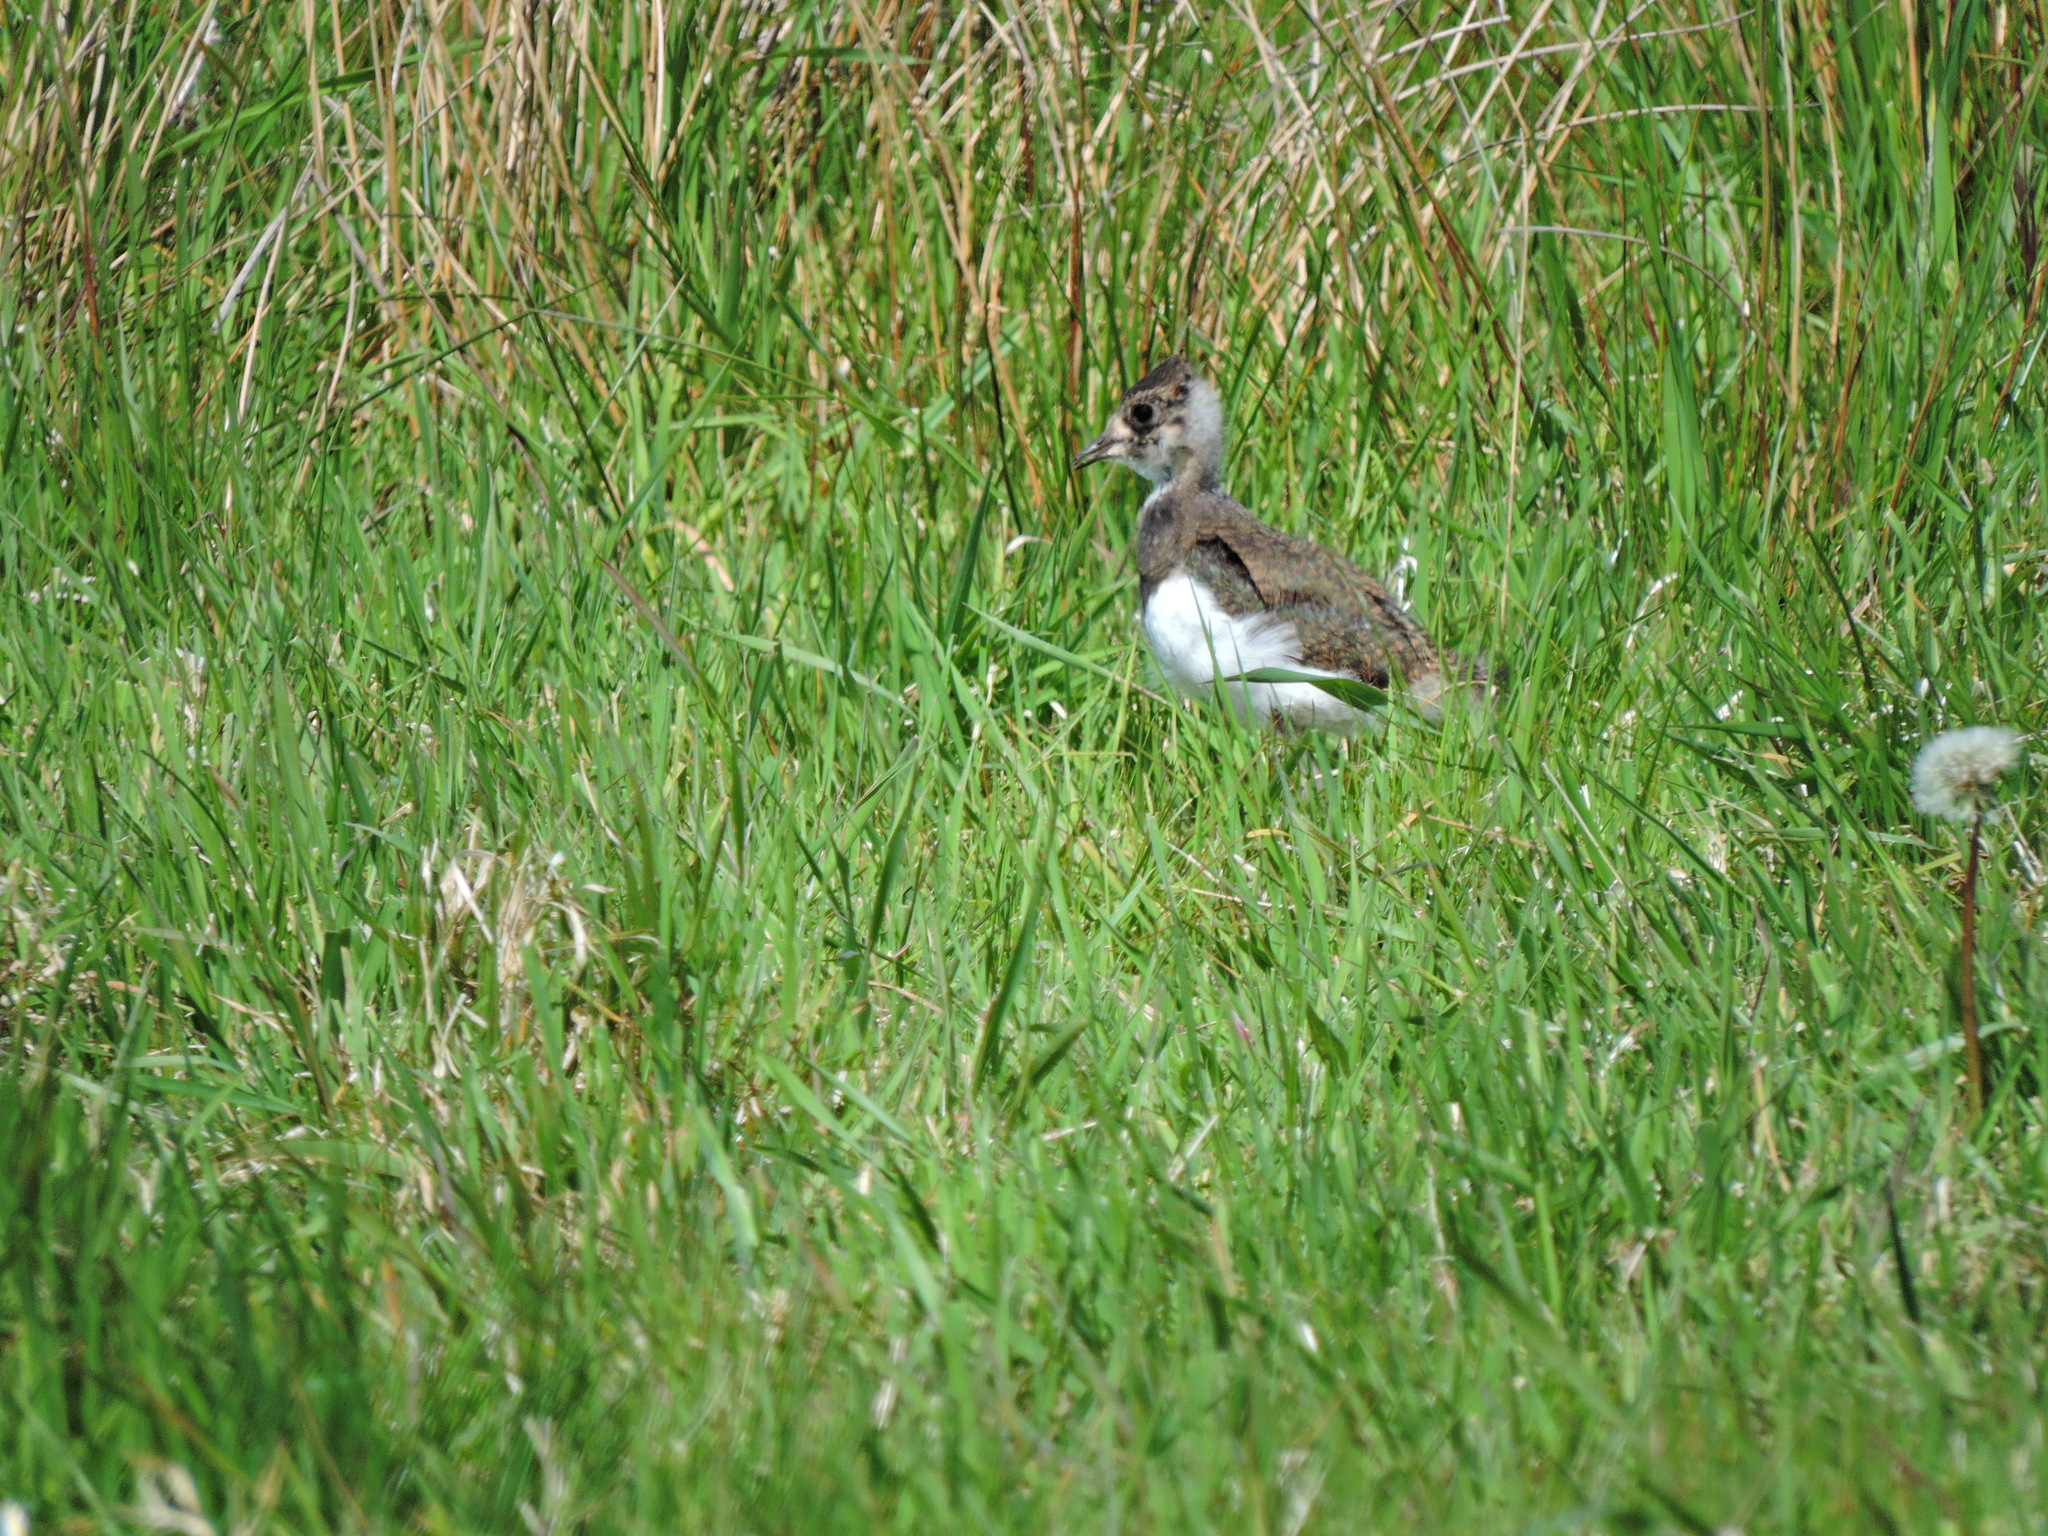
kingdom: Animalia
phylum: Chordata
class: Aves
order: Charadriiformes
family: Charadriidae
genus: Vanellus
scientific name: Vanellus vanellus
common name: Northern lapwing
